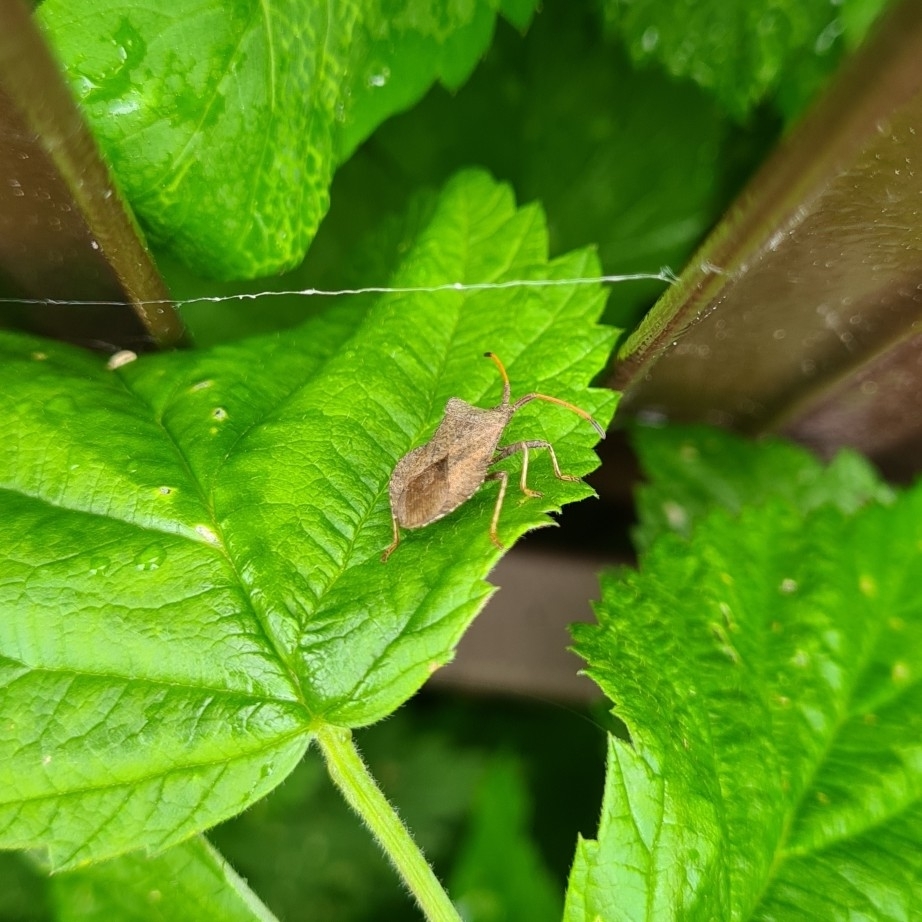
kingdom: Animalia
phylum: Arthropoda
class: Insecta
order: Hemiptera
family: Coreidae
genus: Coreus
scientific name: Coreus marginatus
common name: Dock bug
